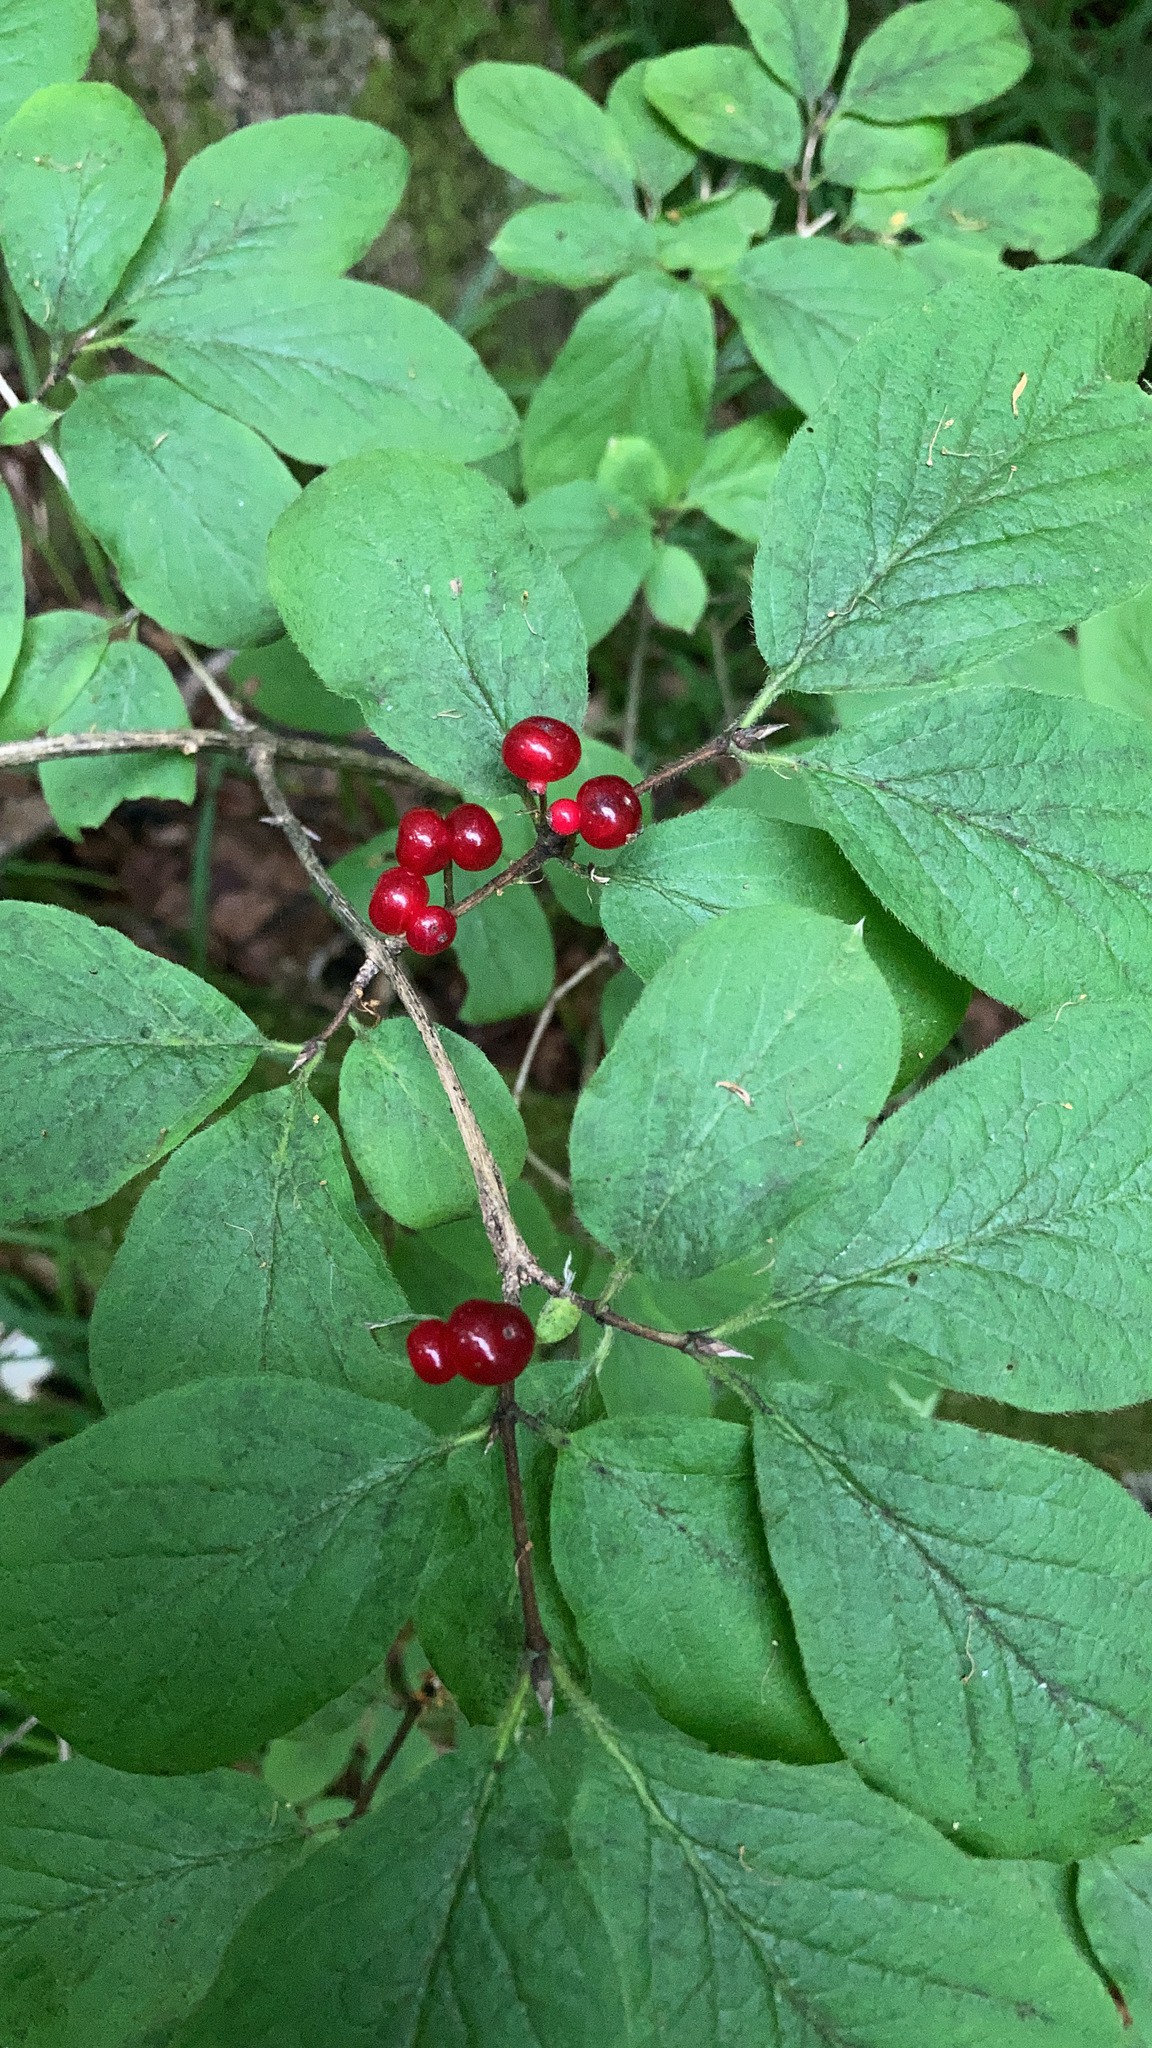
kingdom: Plantae
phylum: Tracheophyta
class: Magnoliopsida
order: Dipsacales
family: Caprifoliaceae
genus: Lonicera
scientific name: Lonicera xylosteum
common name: Fly honeysuckle
